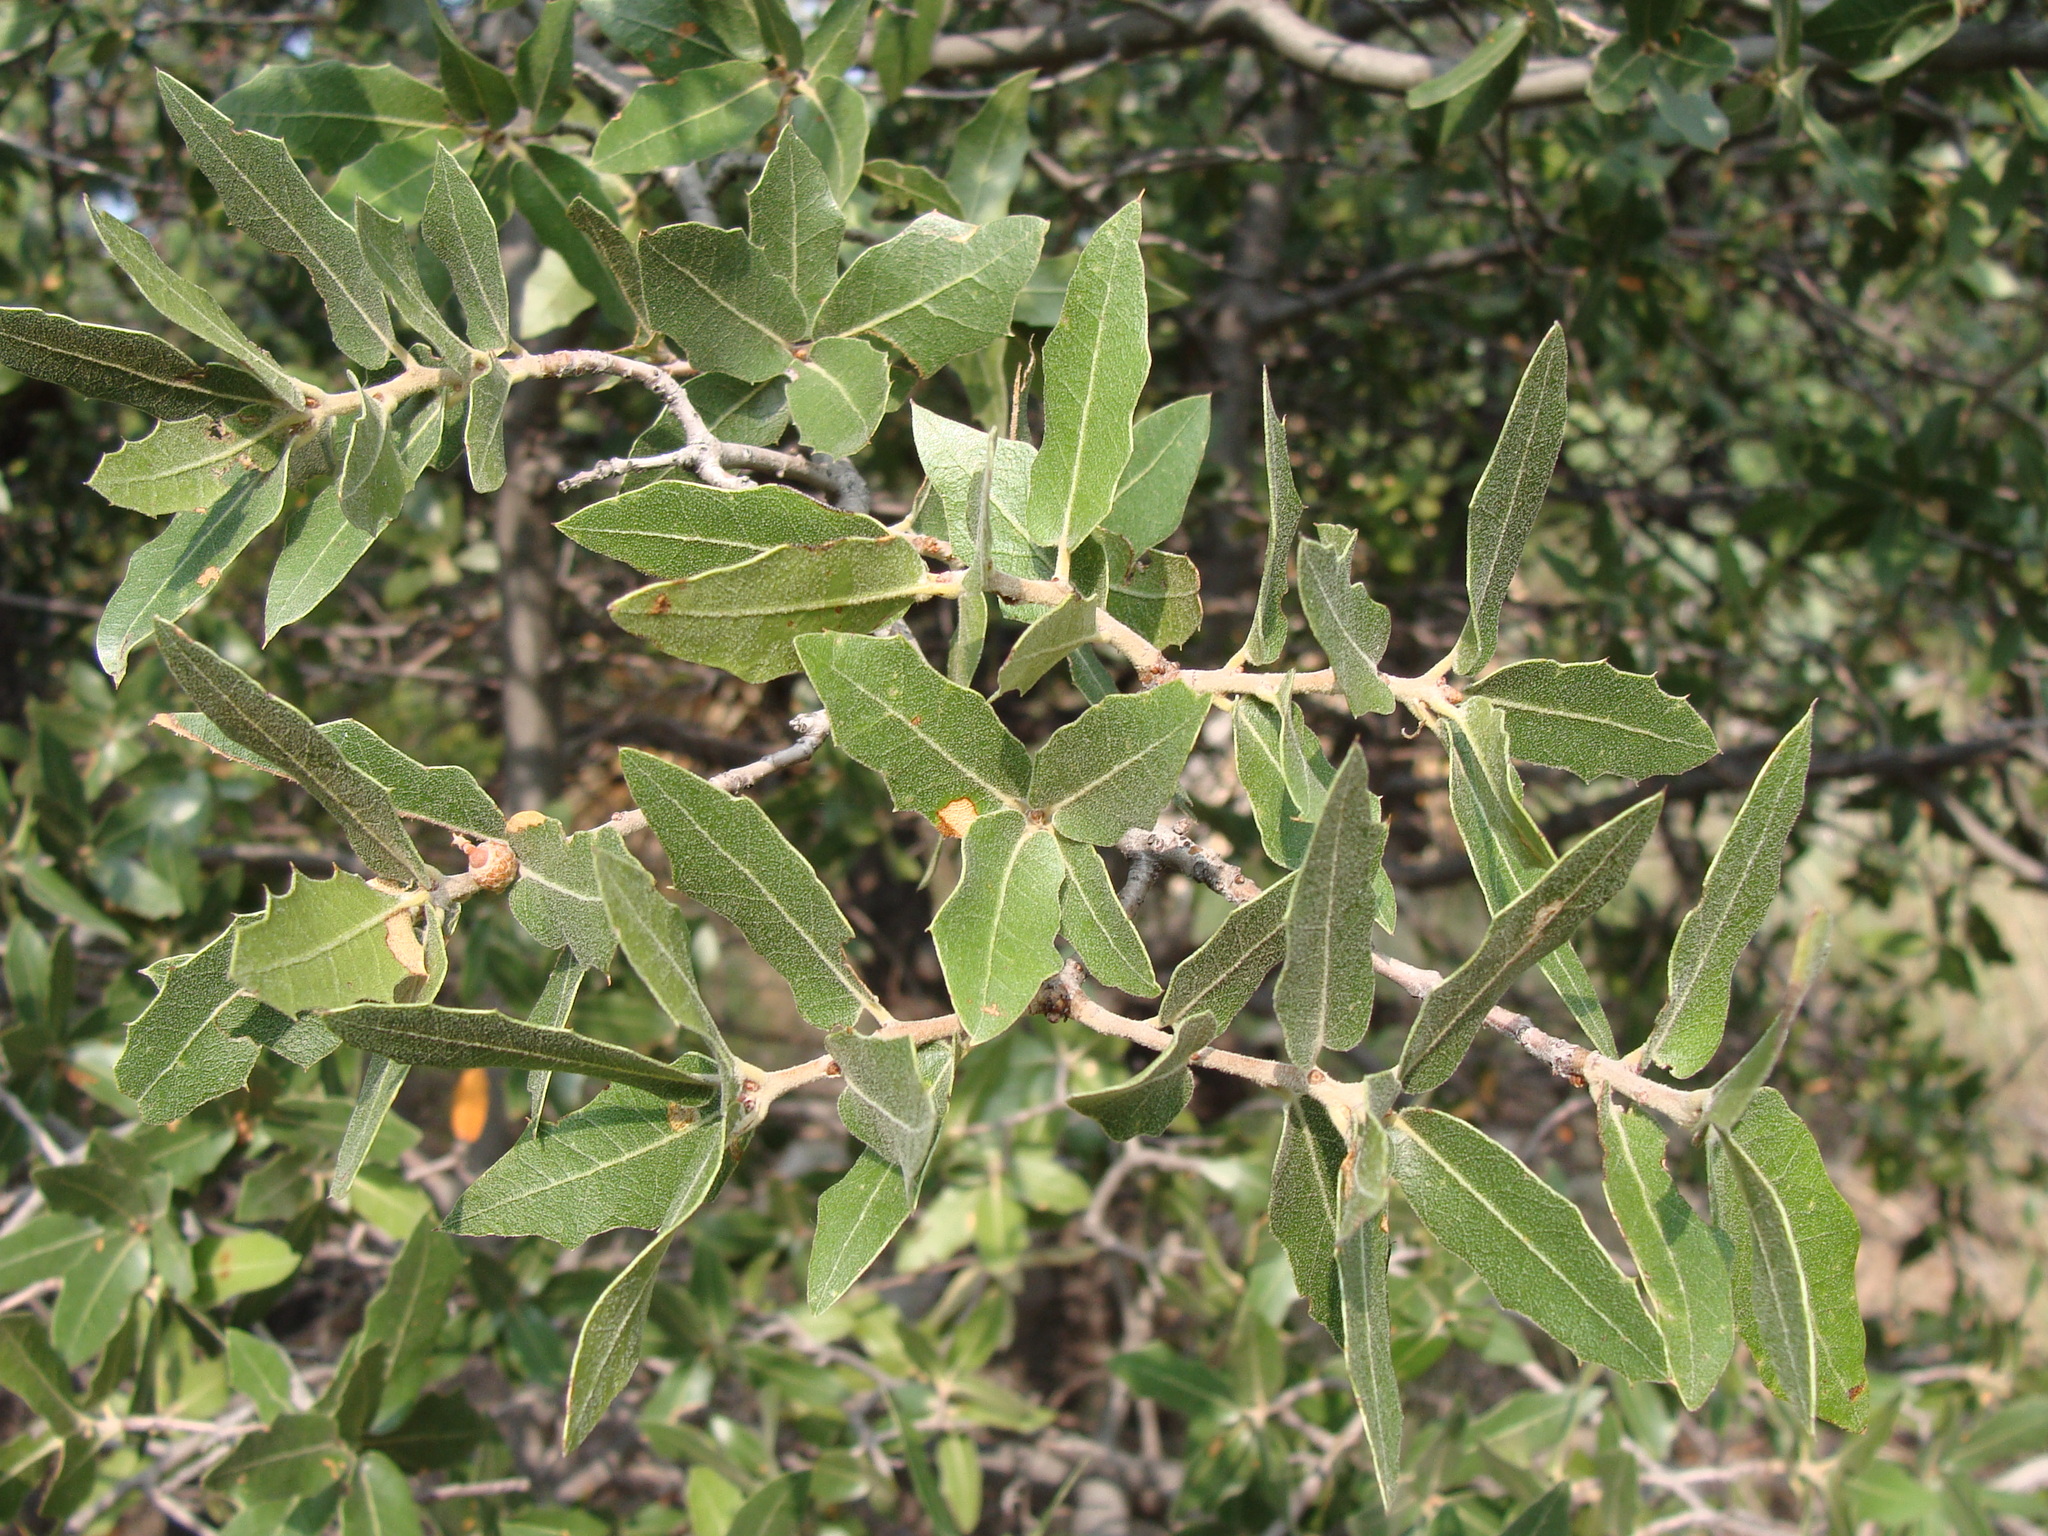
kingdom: Plantae
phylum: Tracheophyta
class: Magnoliopsida
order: Fagales
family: Fagaceae
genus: Quercus
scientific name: Quercus emoryi
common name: Emory oak
